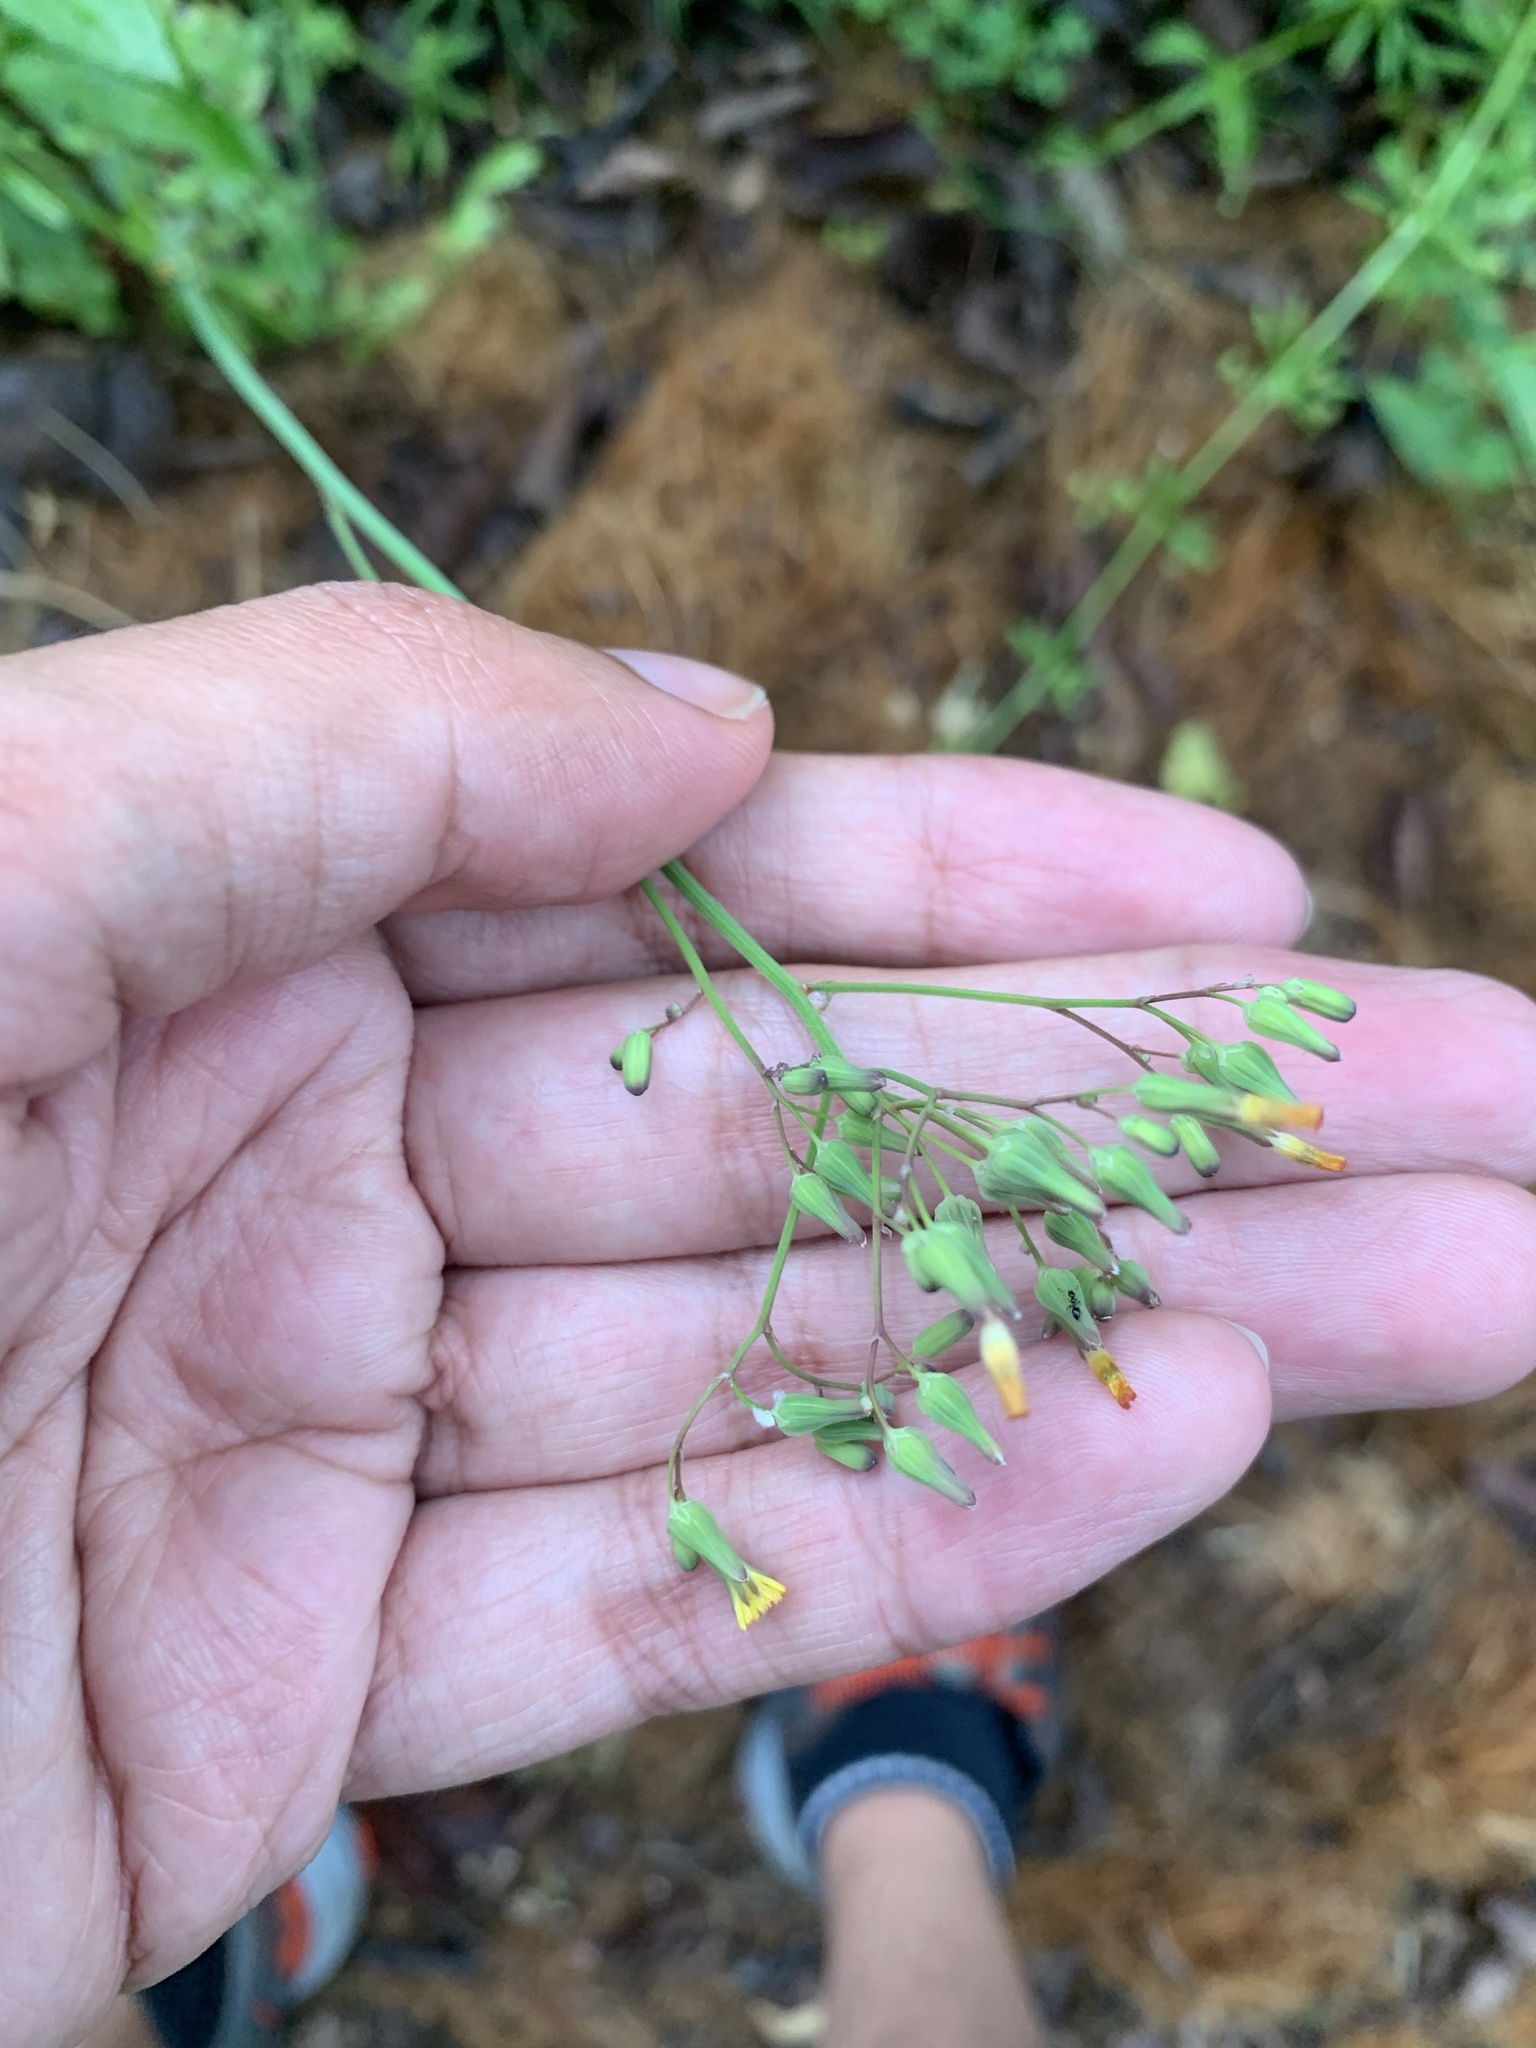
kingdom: Plantae
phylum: Tracheophyta
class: Magnoliopsida
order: Asterales
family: Asteraceae
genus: Youngia
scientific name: Youngia japonica
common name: Oriental false hawksbeard
